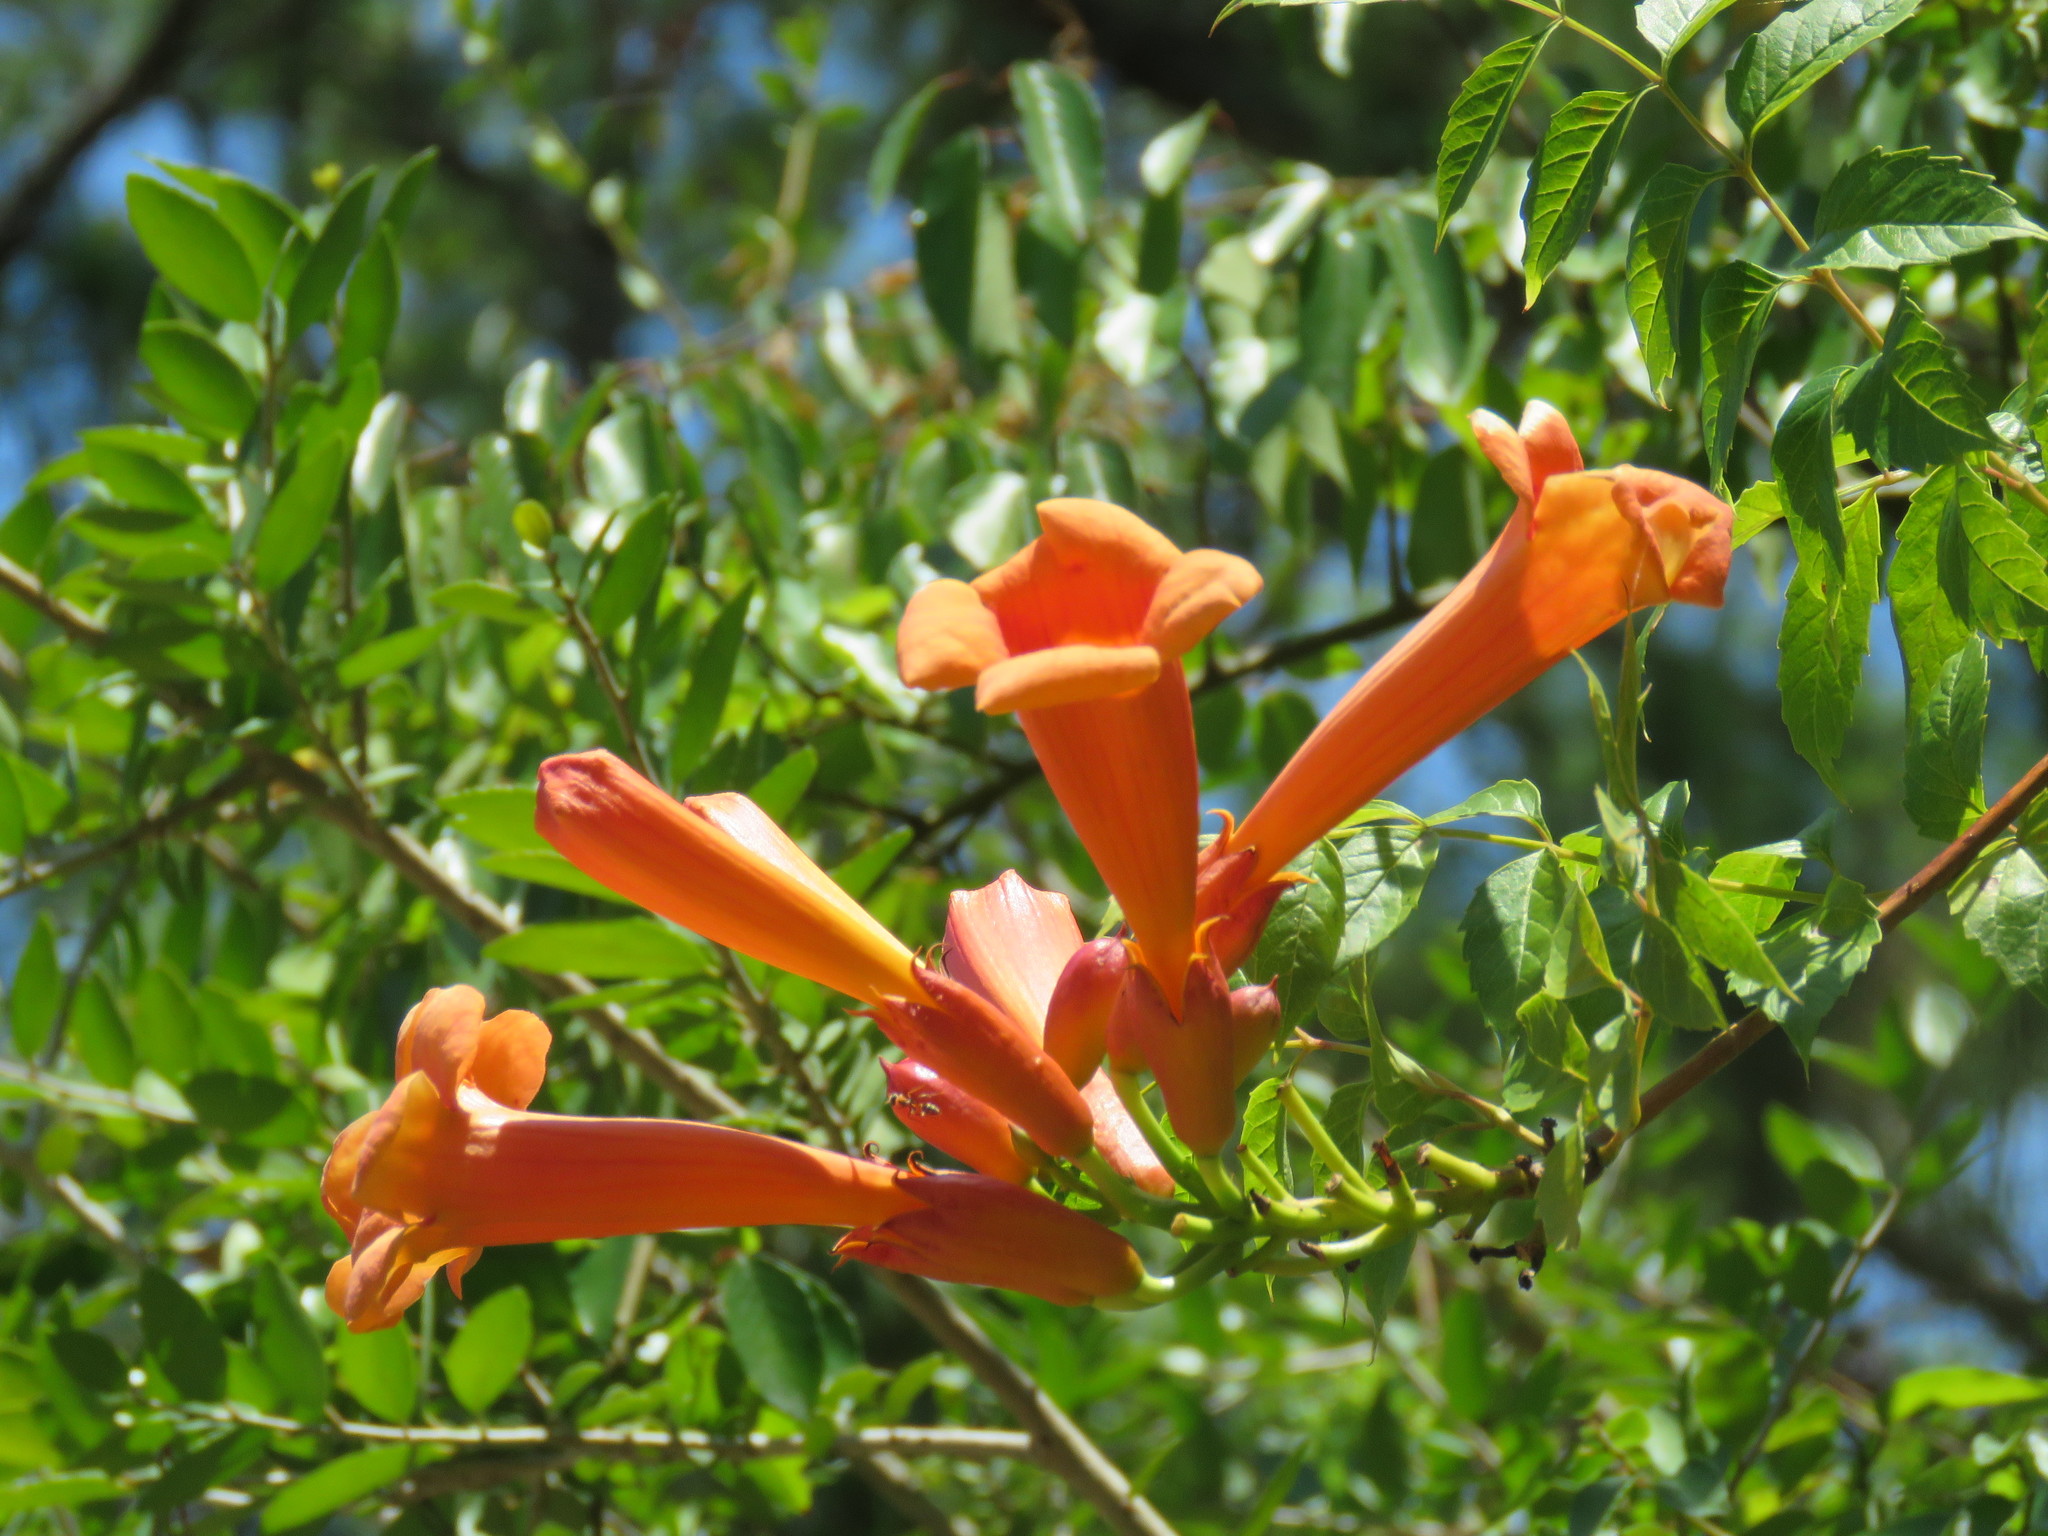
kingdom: Plantae
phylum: Tracheophyta
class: Magnoliopsida
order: Lamiales
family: Bignoniaceae
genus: Campsis
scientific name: Campsis radicans
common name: Trumpet-creeper
